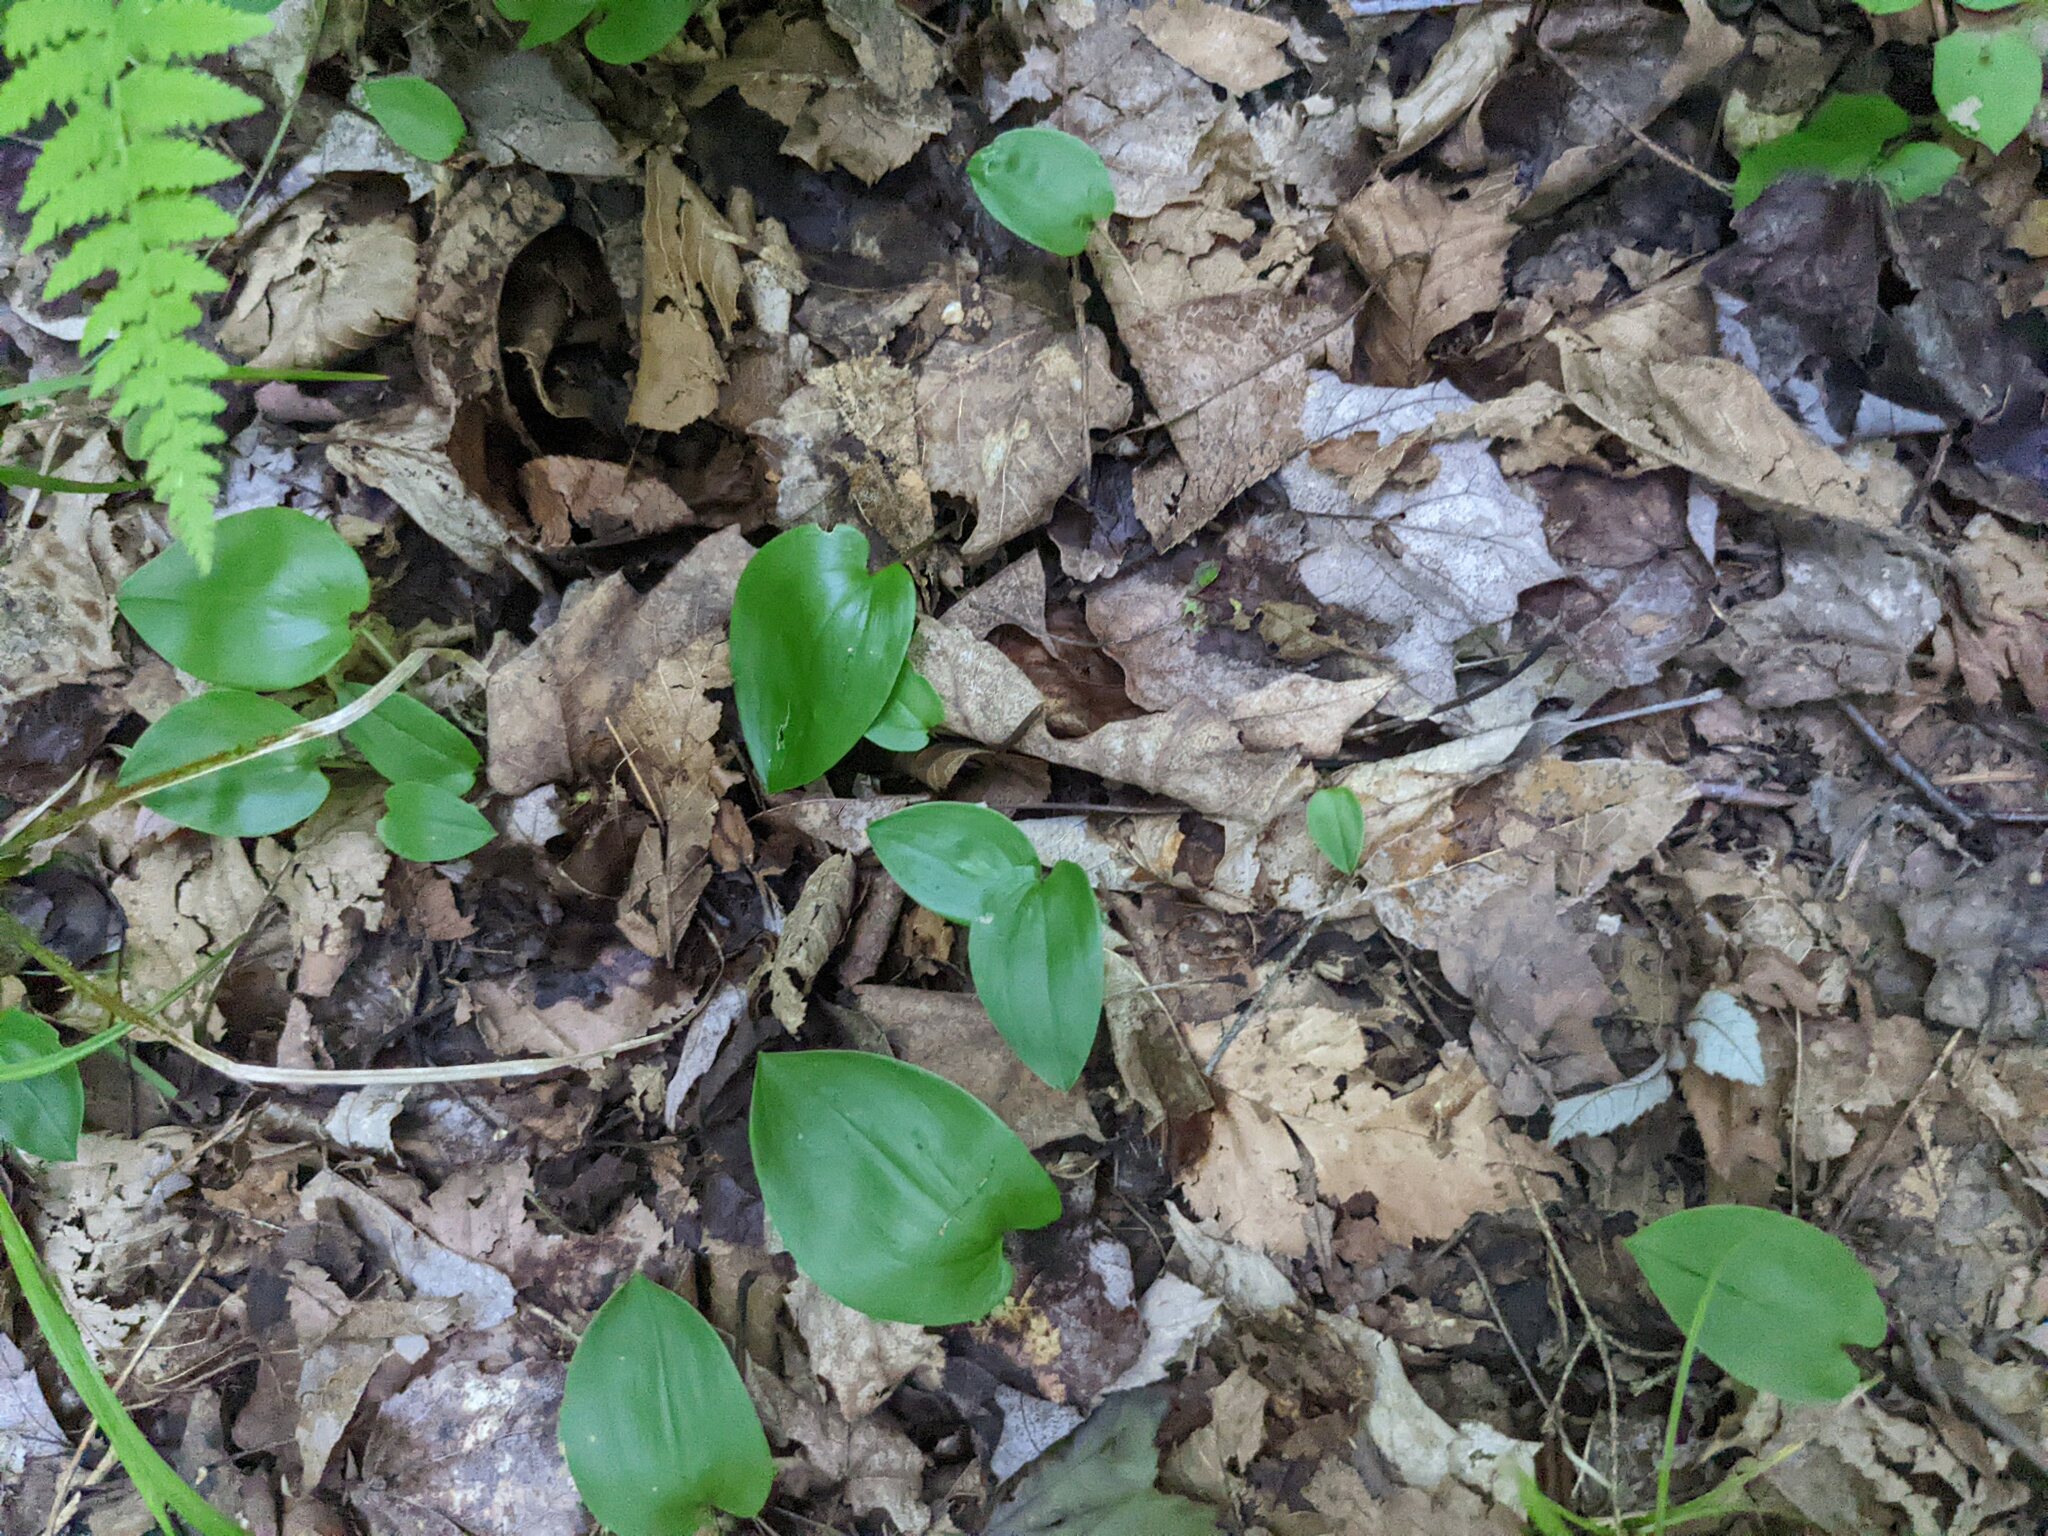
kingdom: Plantae
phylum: Tracheophyta
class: Liliopsida
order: Asparagales
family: Asparagaceae
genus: Maianthemum
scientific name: Maianthemum canadense
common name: False lily-of-the-valley
